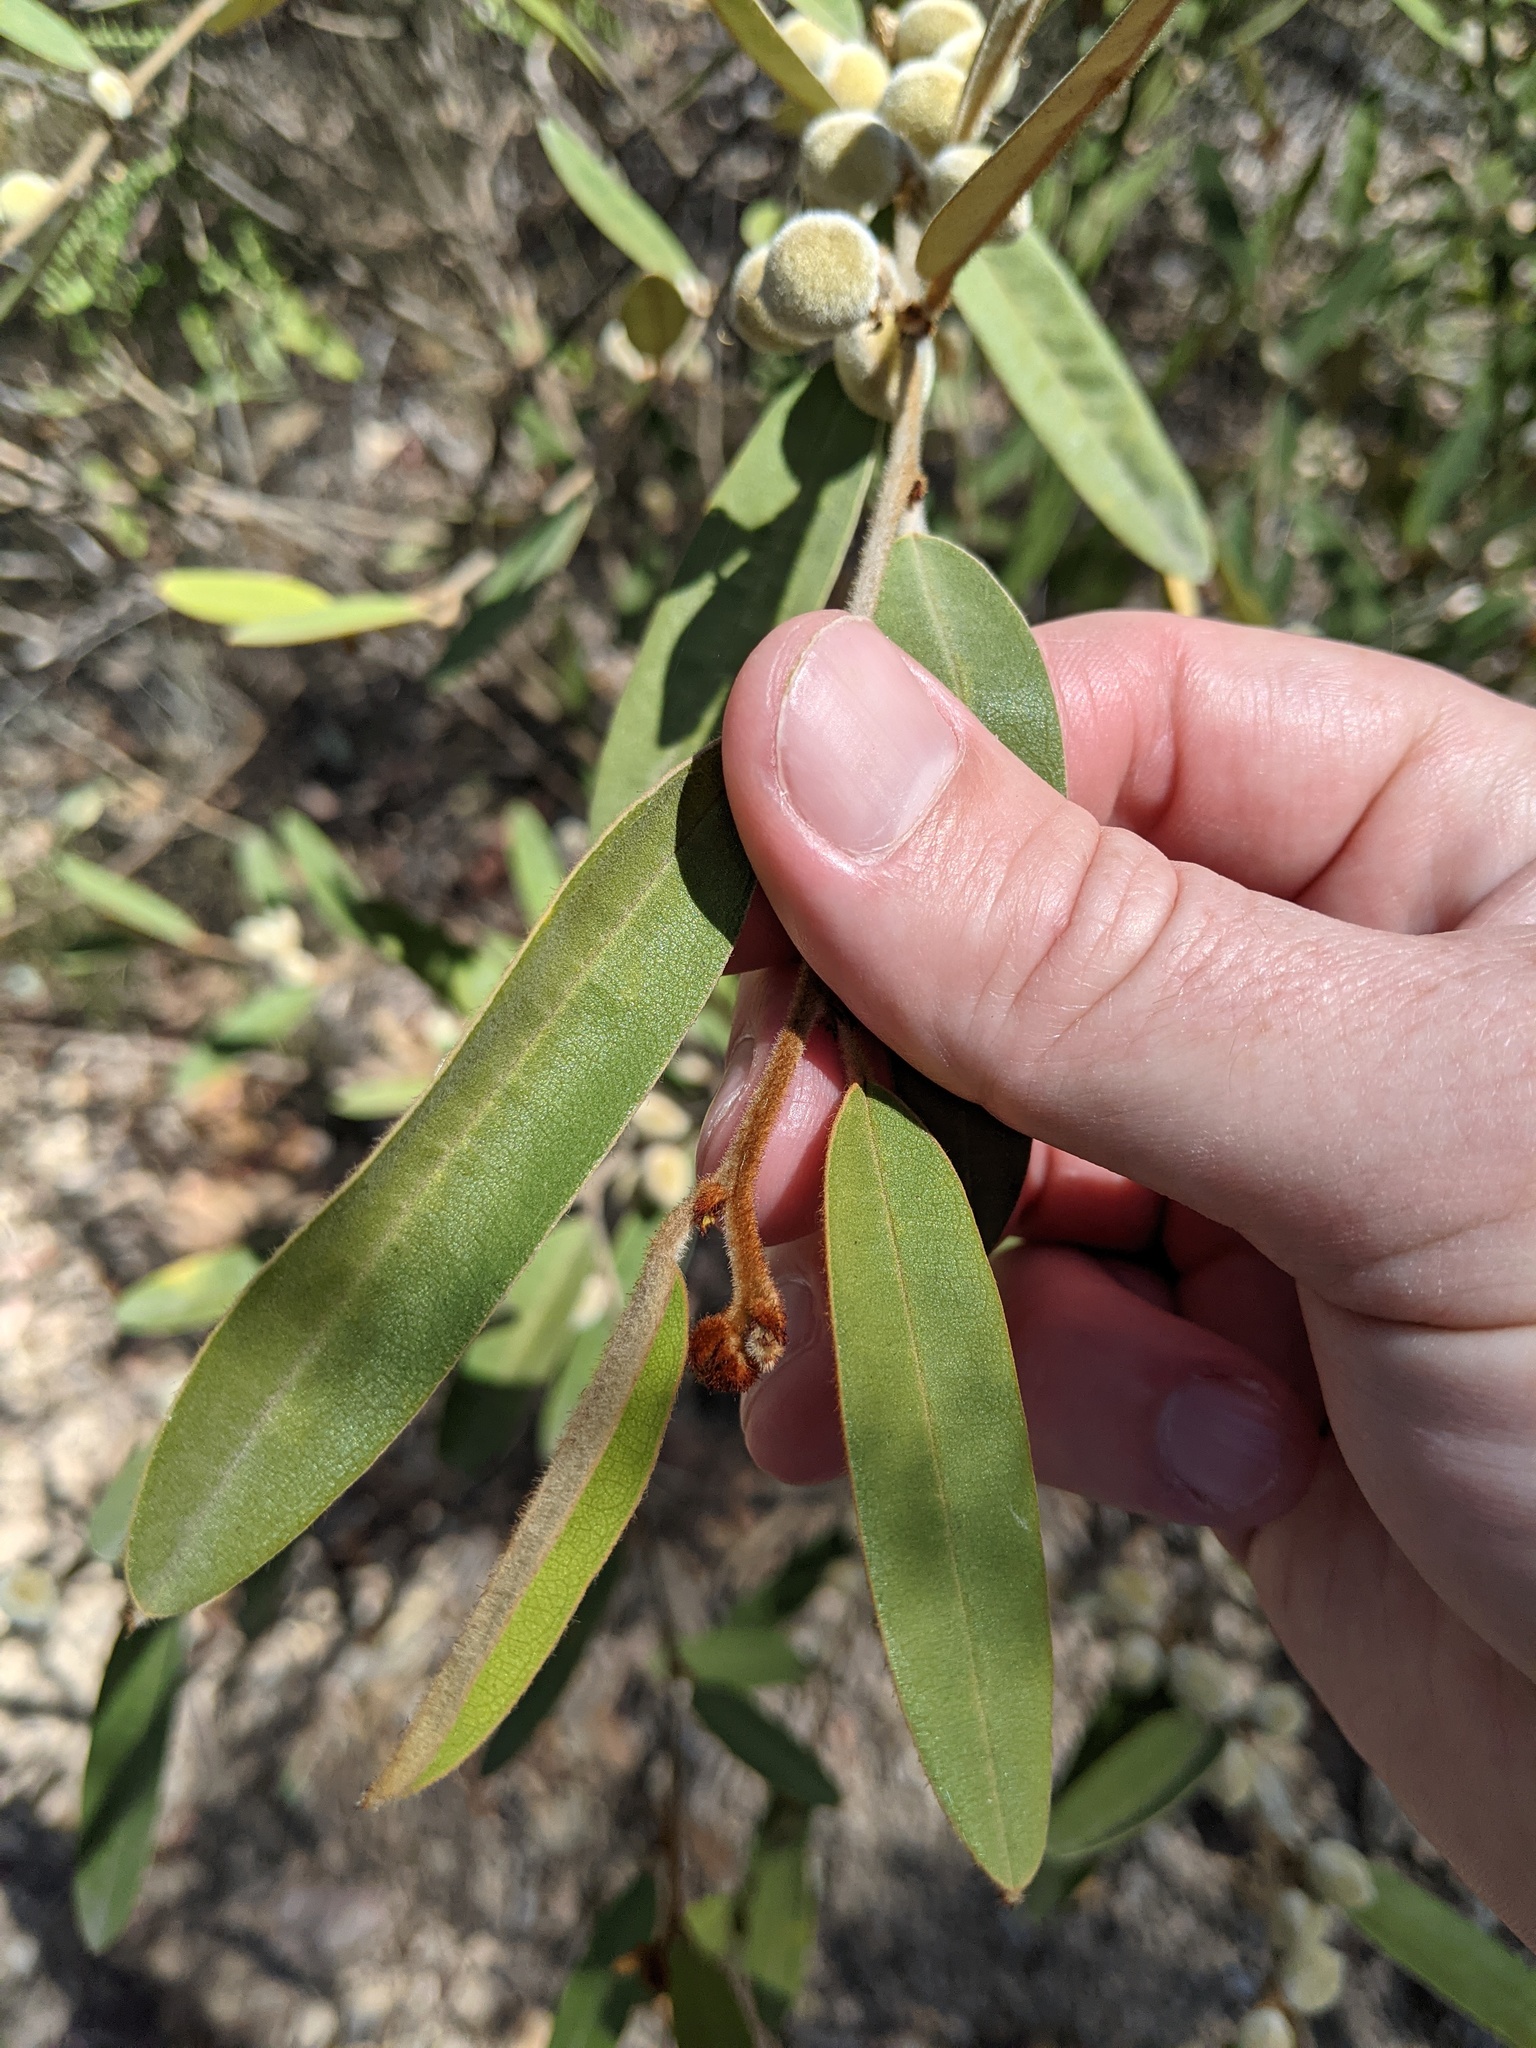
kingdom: Plantae
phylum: Tracheophyta
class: Magnoliopsida
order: Fabales
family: Fabaceae
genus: Hovea
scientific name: Hovea planifolia
